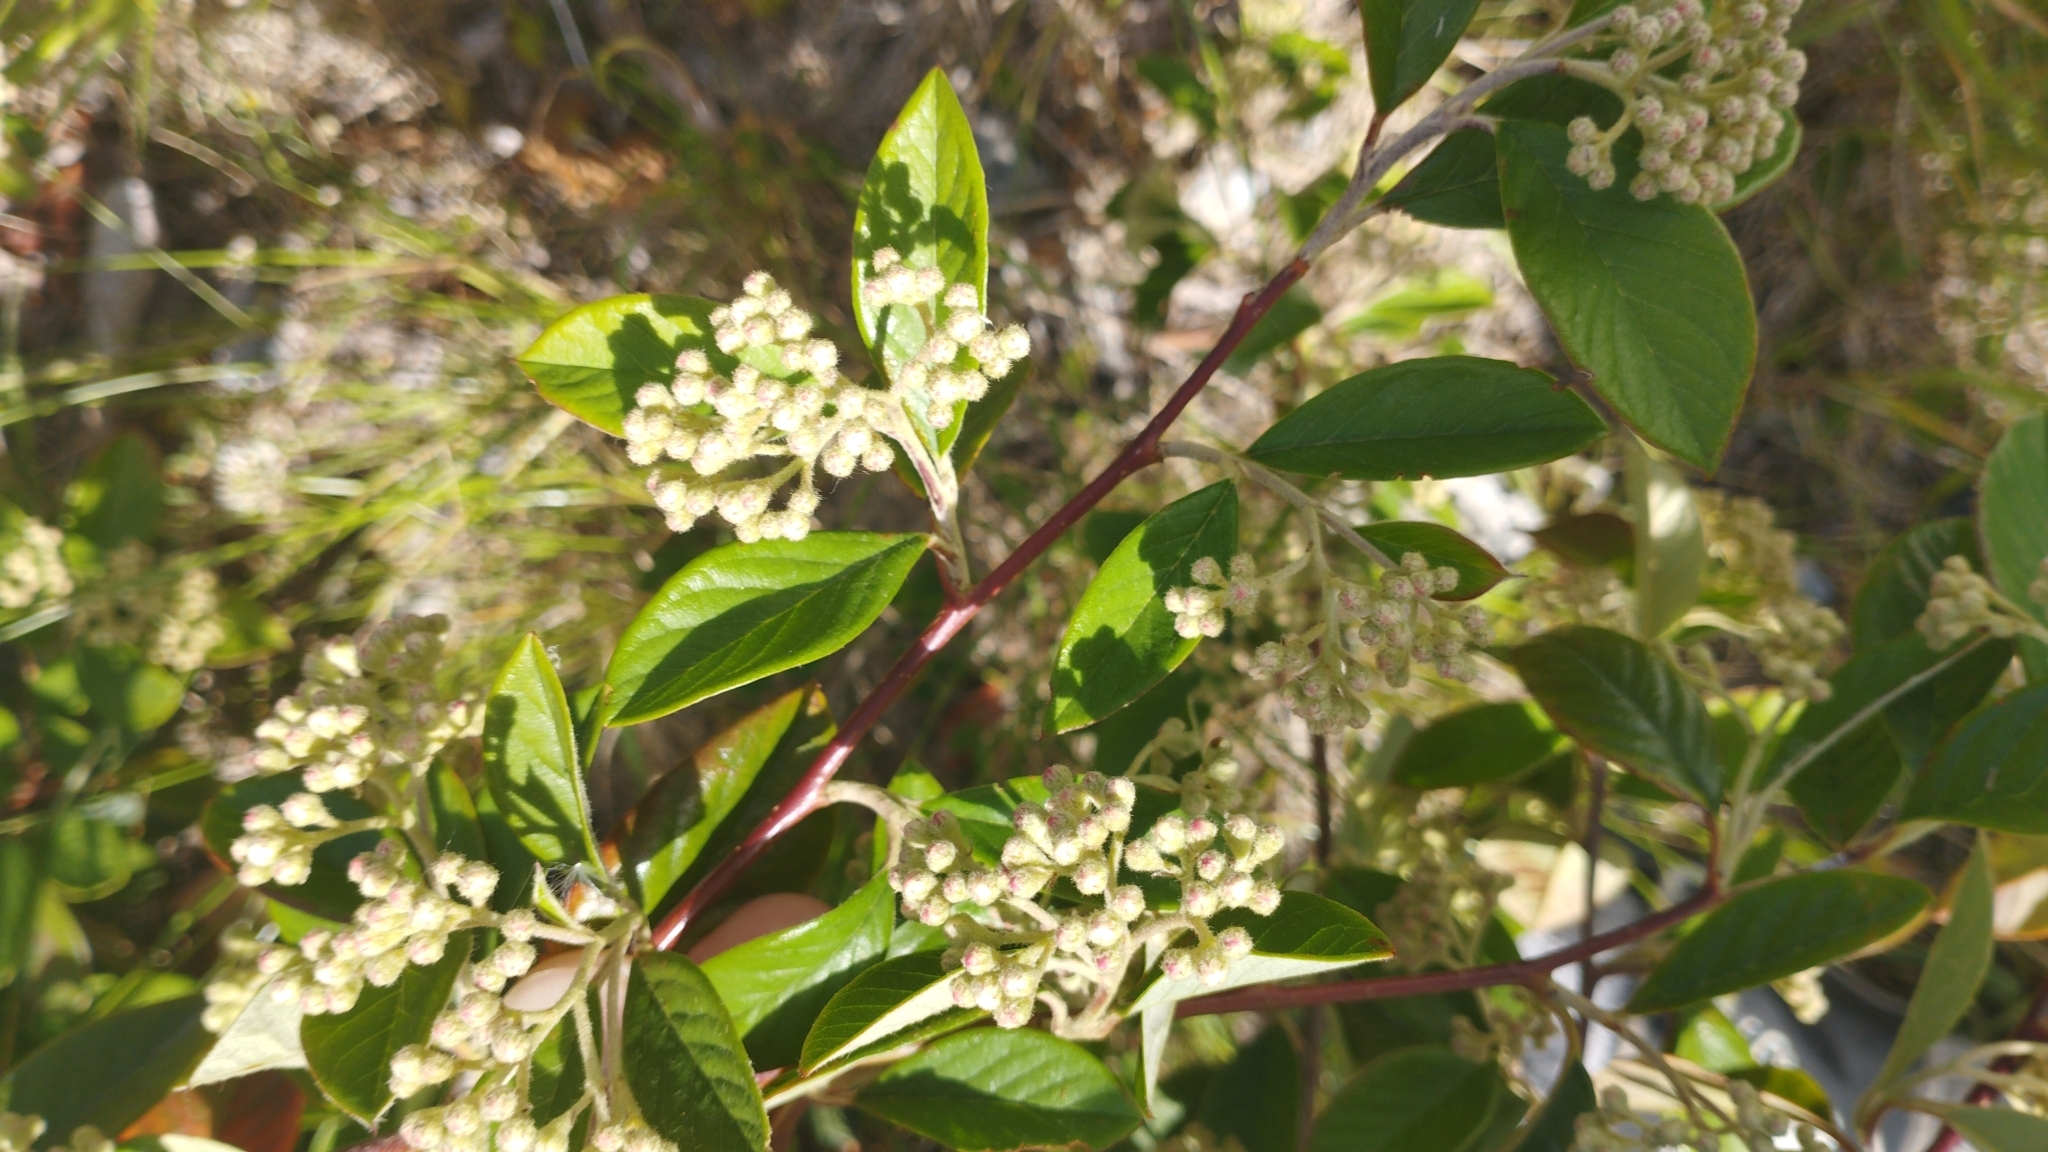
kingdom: Plantae
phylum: Tracheophyta
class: Magnoliopsida
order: Rosales
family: Rosaceae
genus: Cotoneaster
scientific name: Cotoneaster glaucophyllus
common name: Glaucous cotoneaster
